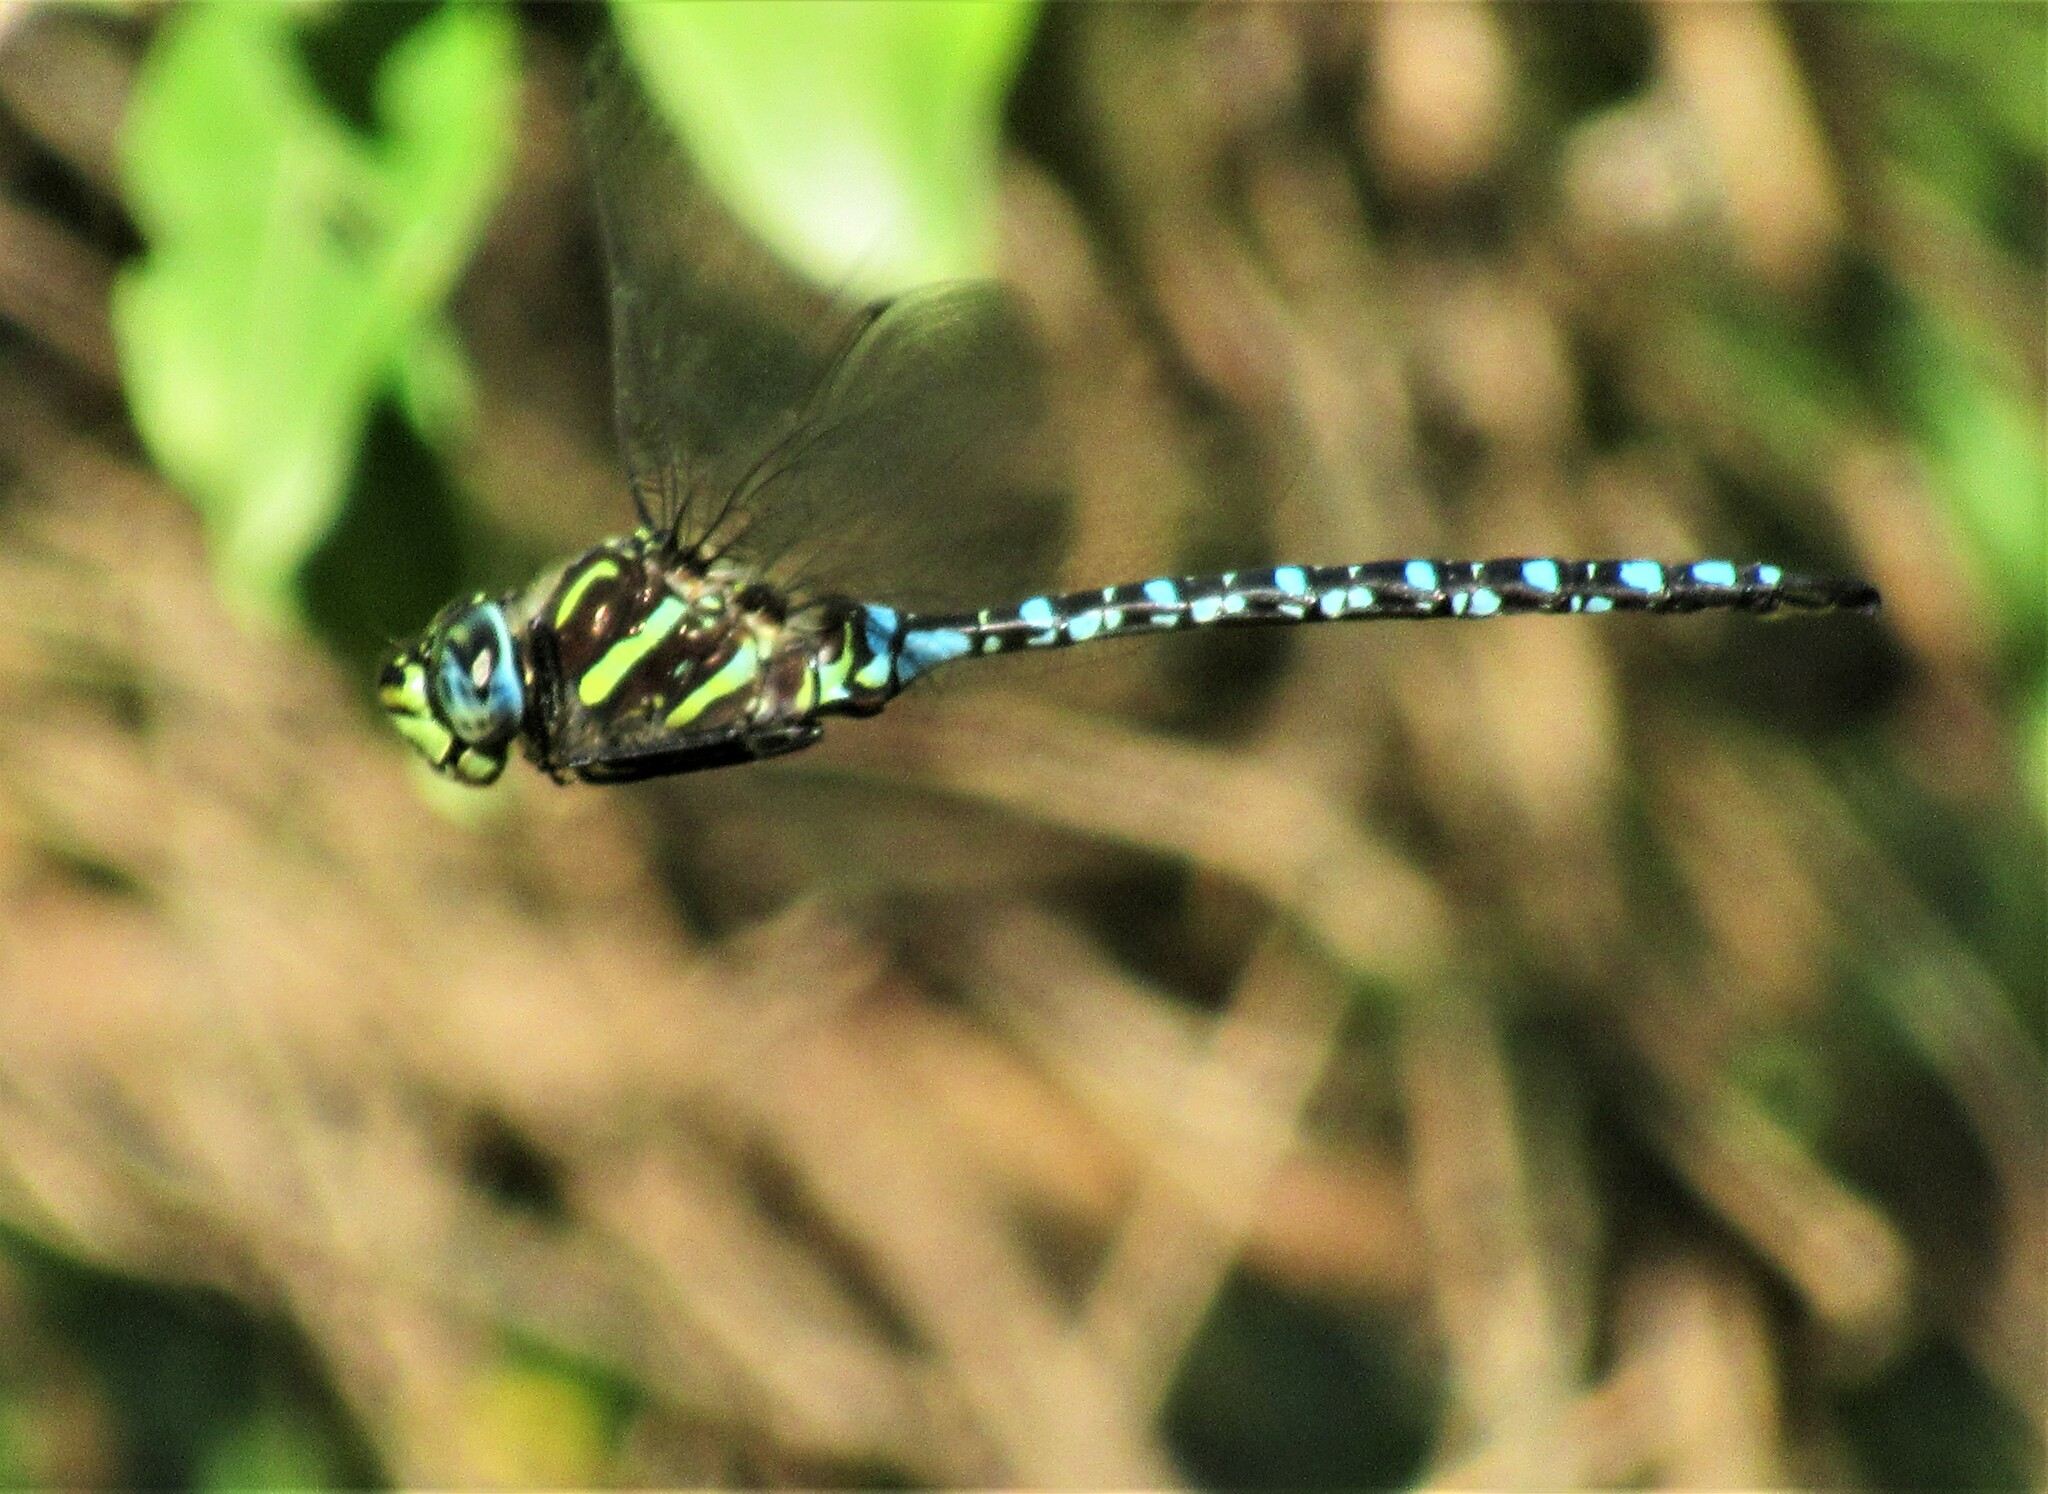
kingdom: Animalia
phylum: Arthropoda
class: Insecta
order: Odonata
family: Aeshnidae
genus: Aeshna
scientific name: Aeshna palmata
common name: Paddle-tailed darner
